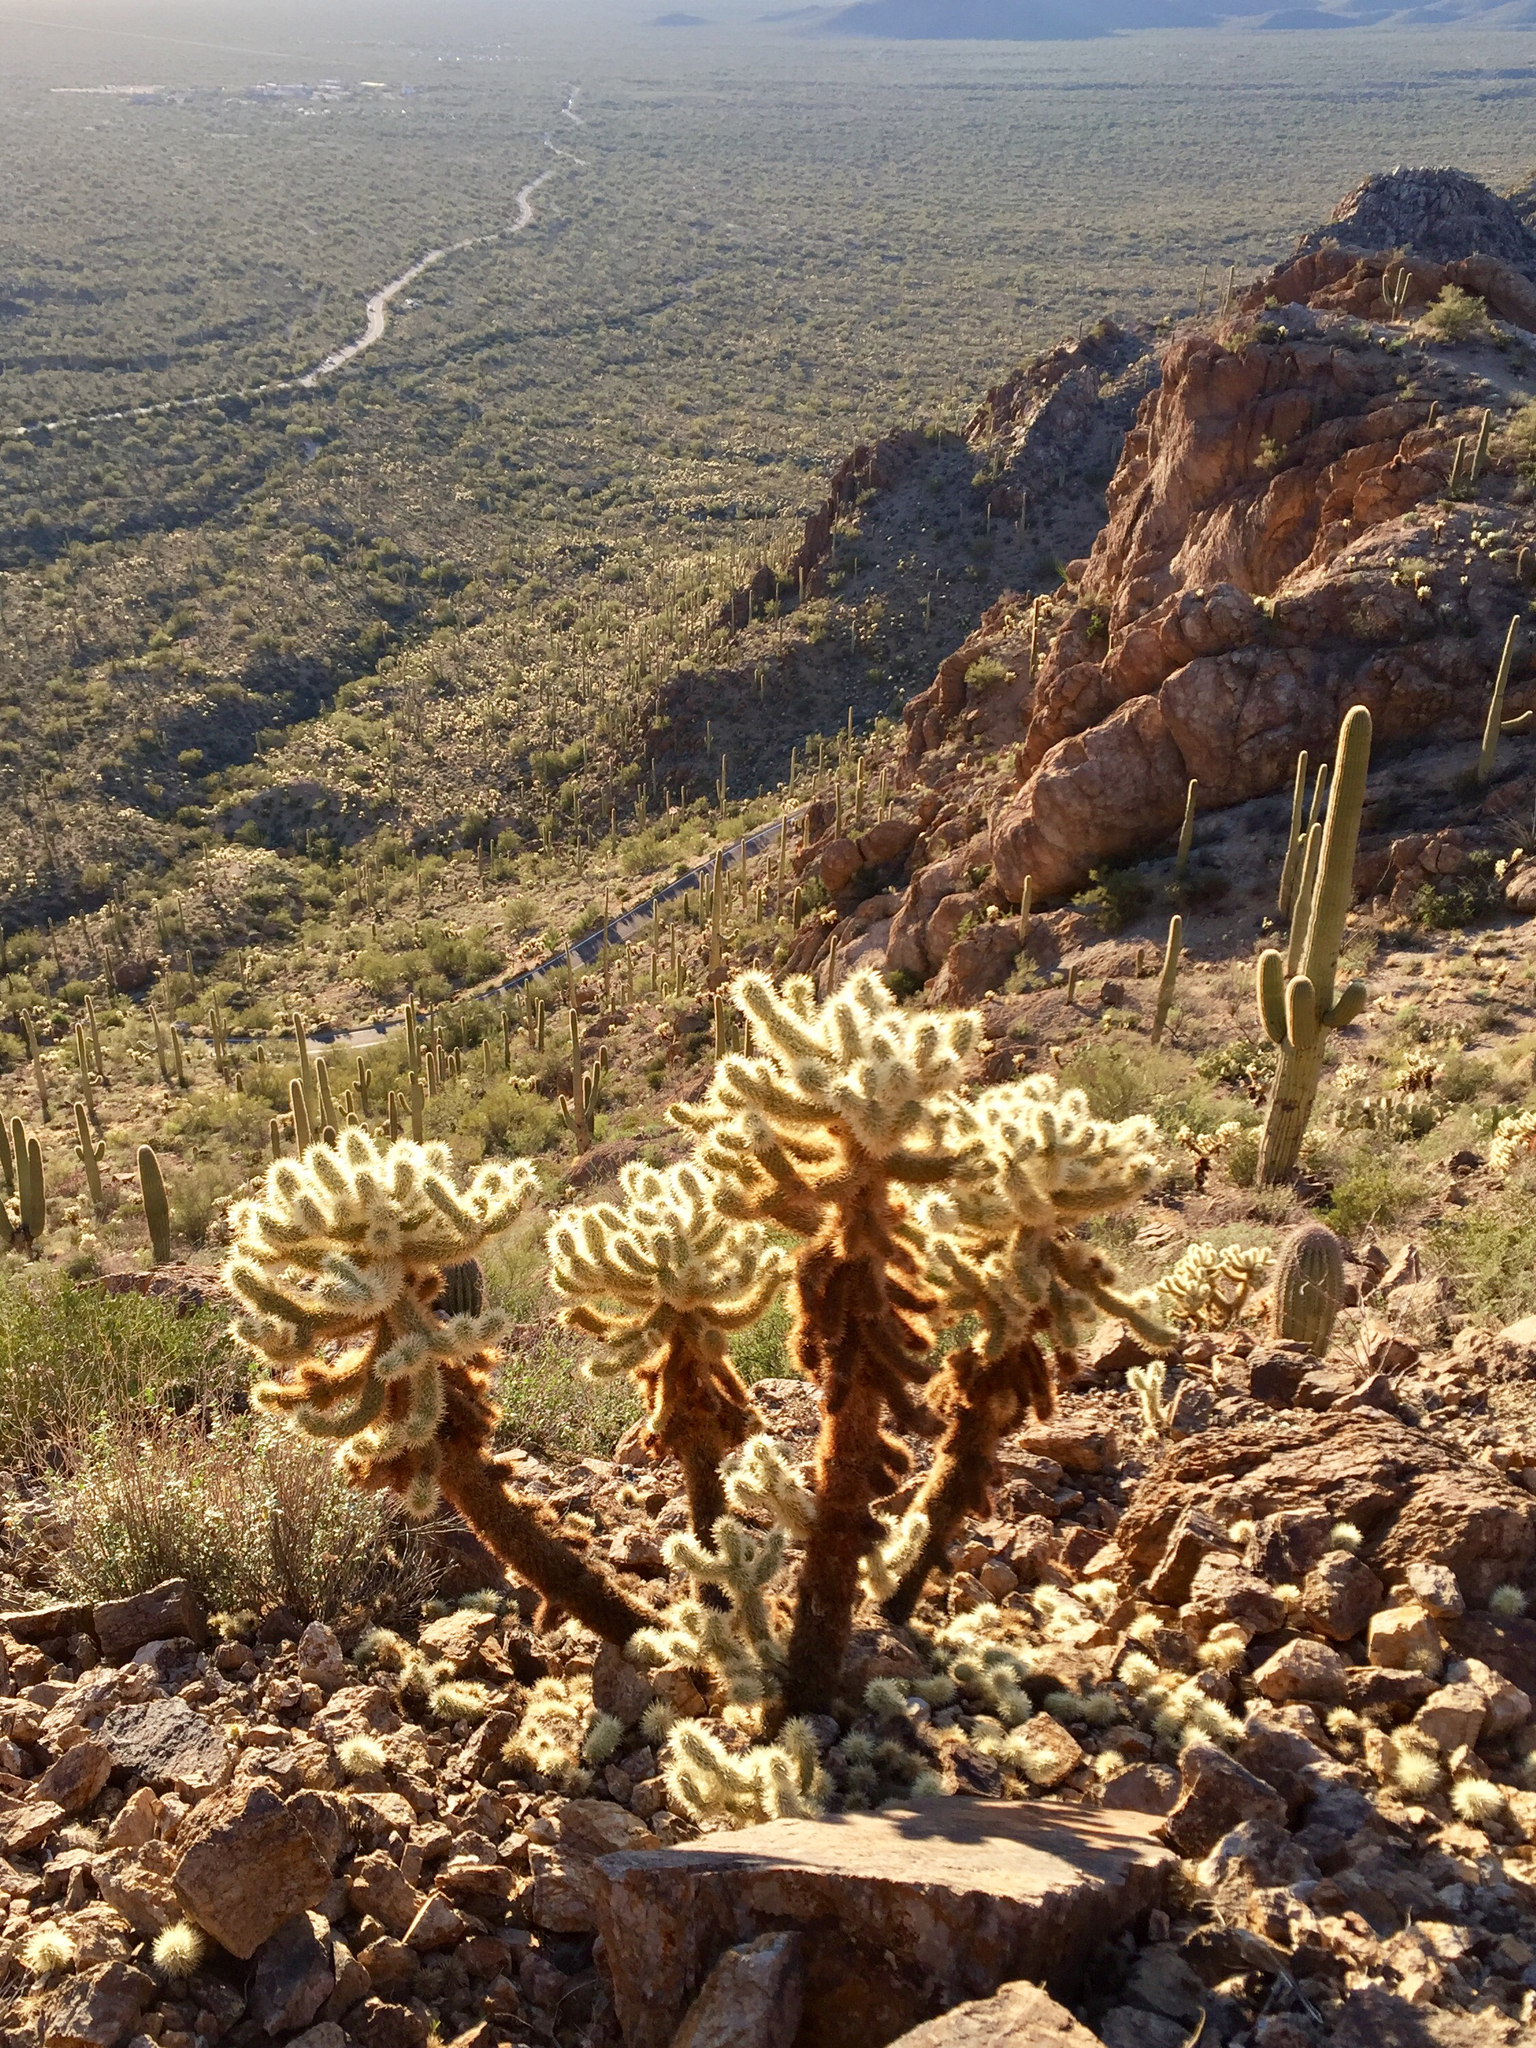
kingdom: Plantae
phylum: Tracheophyta
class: Magnoliopsida
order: Caryophyllales
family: Cactaceae
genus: Cylindropuntia
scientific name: Cylindropuntia fosbergii
